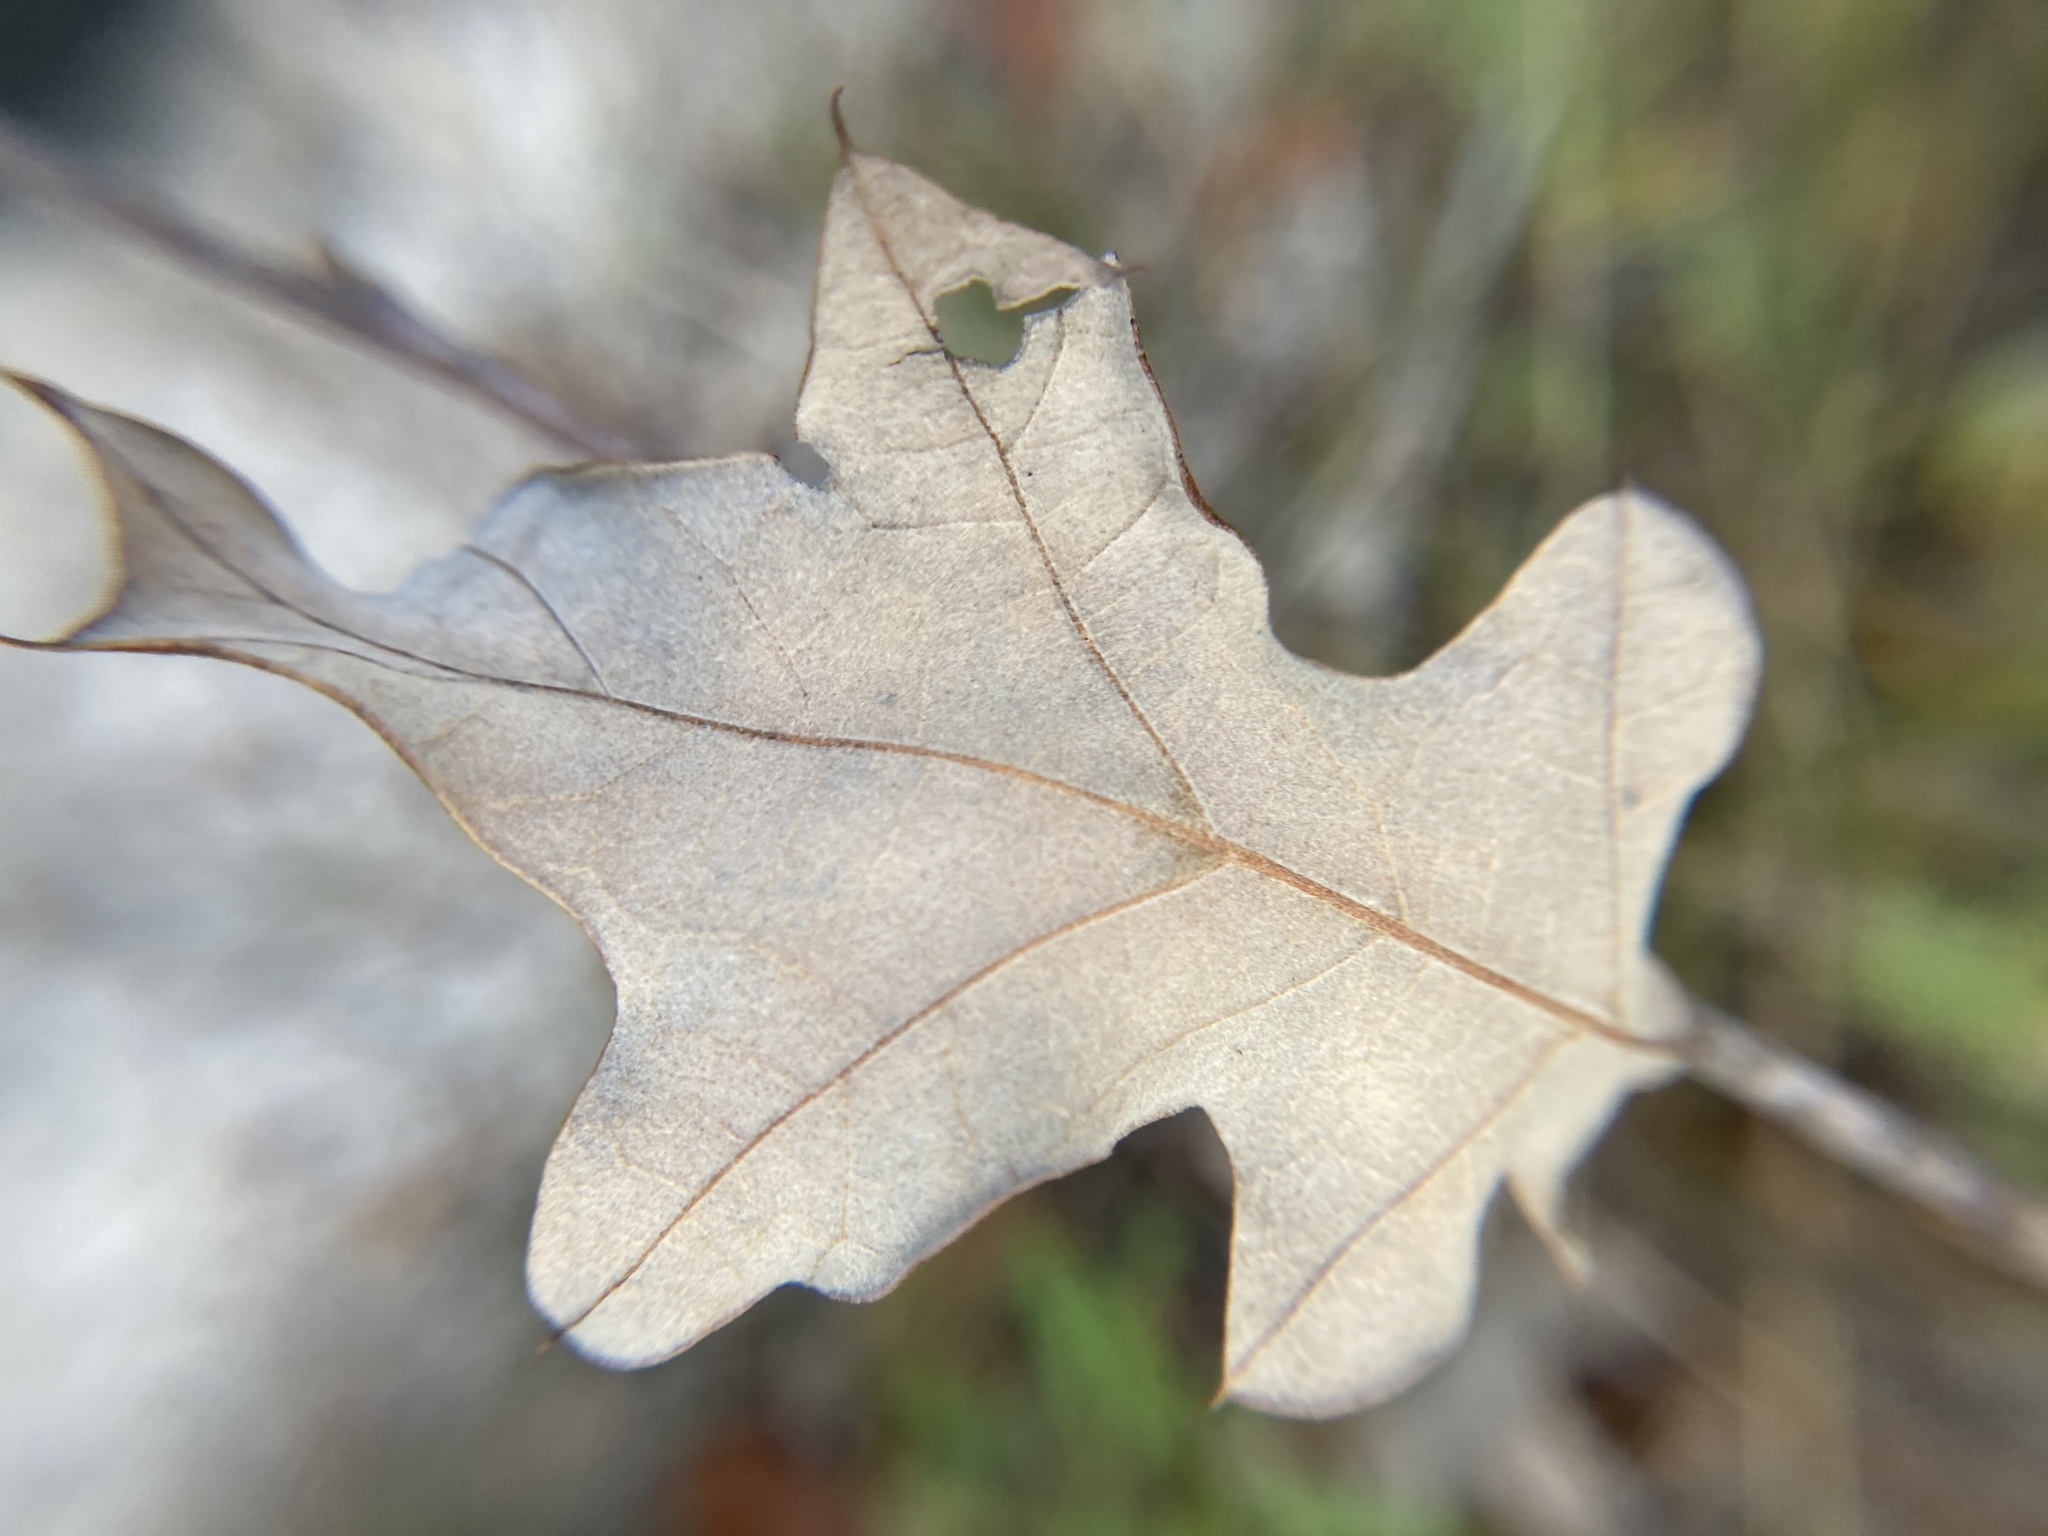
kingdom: Plantae
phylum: Tracheophyta
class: Magnoliopsida
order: Fagales
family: Fagaceae
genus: Quercus
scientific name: Quercus ilicifolia
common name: Bear oak
